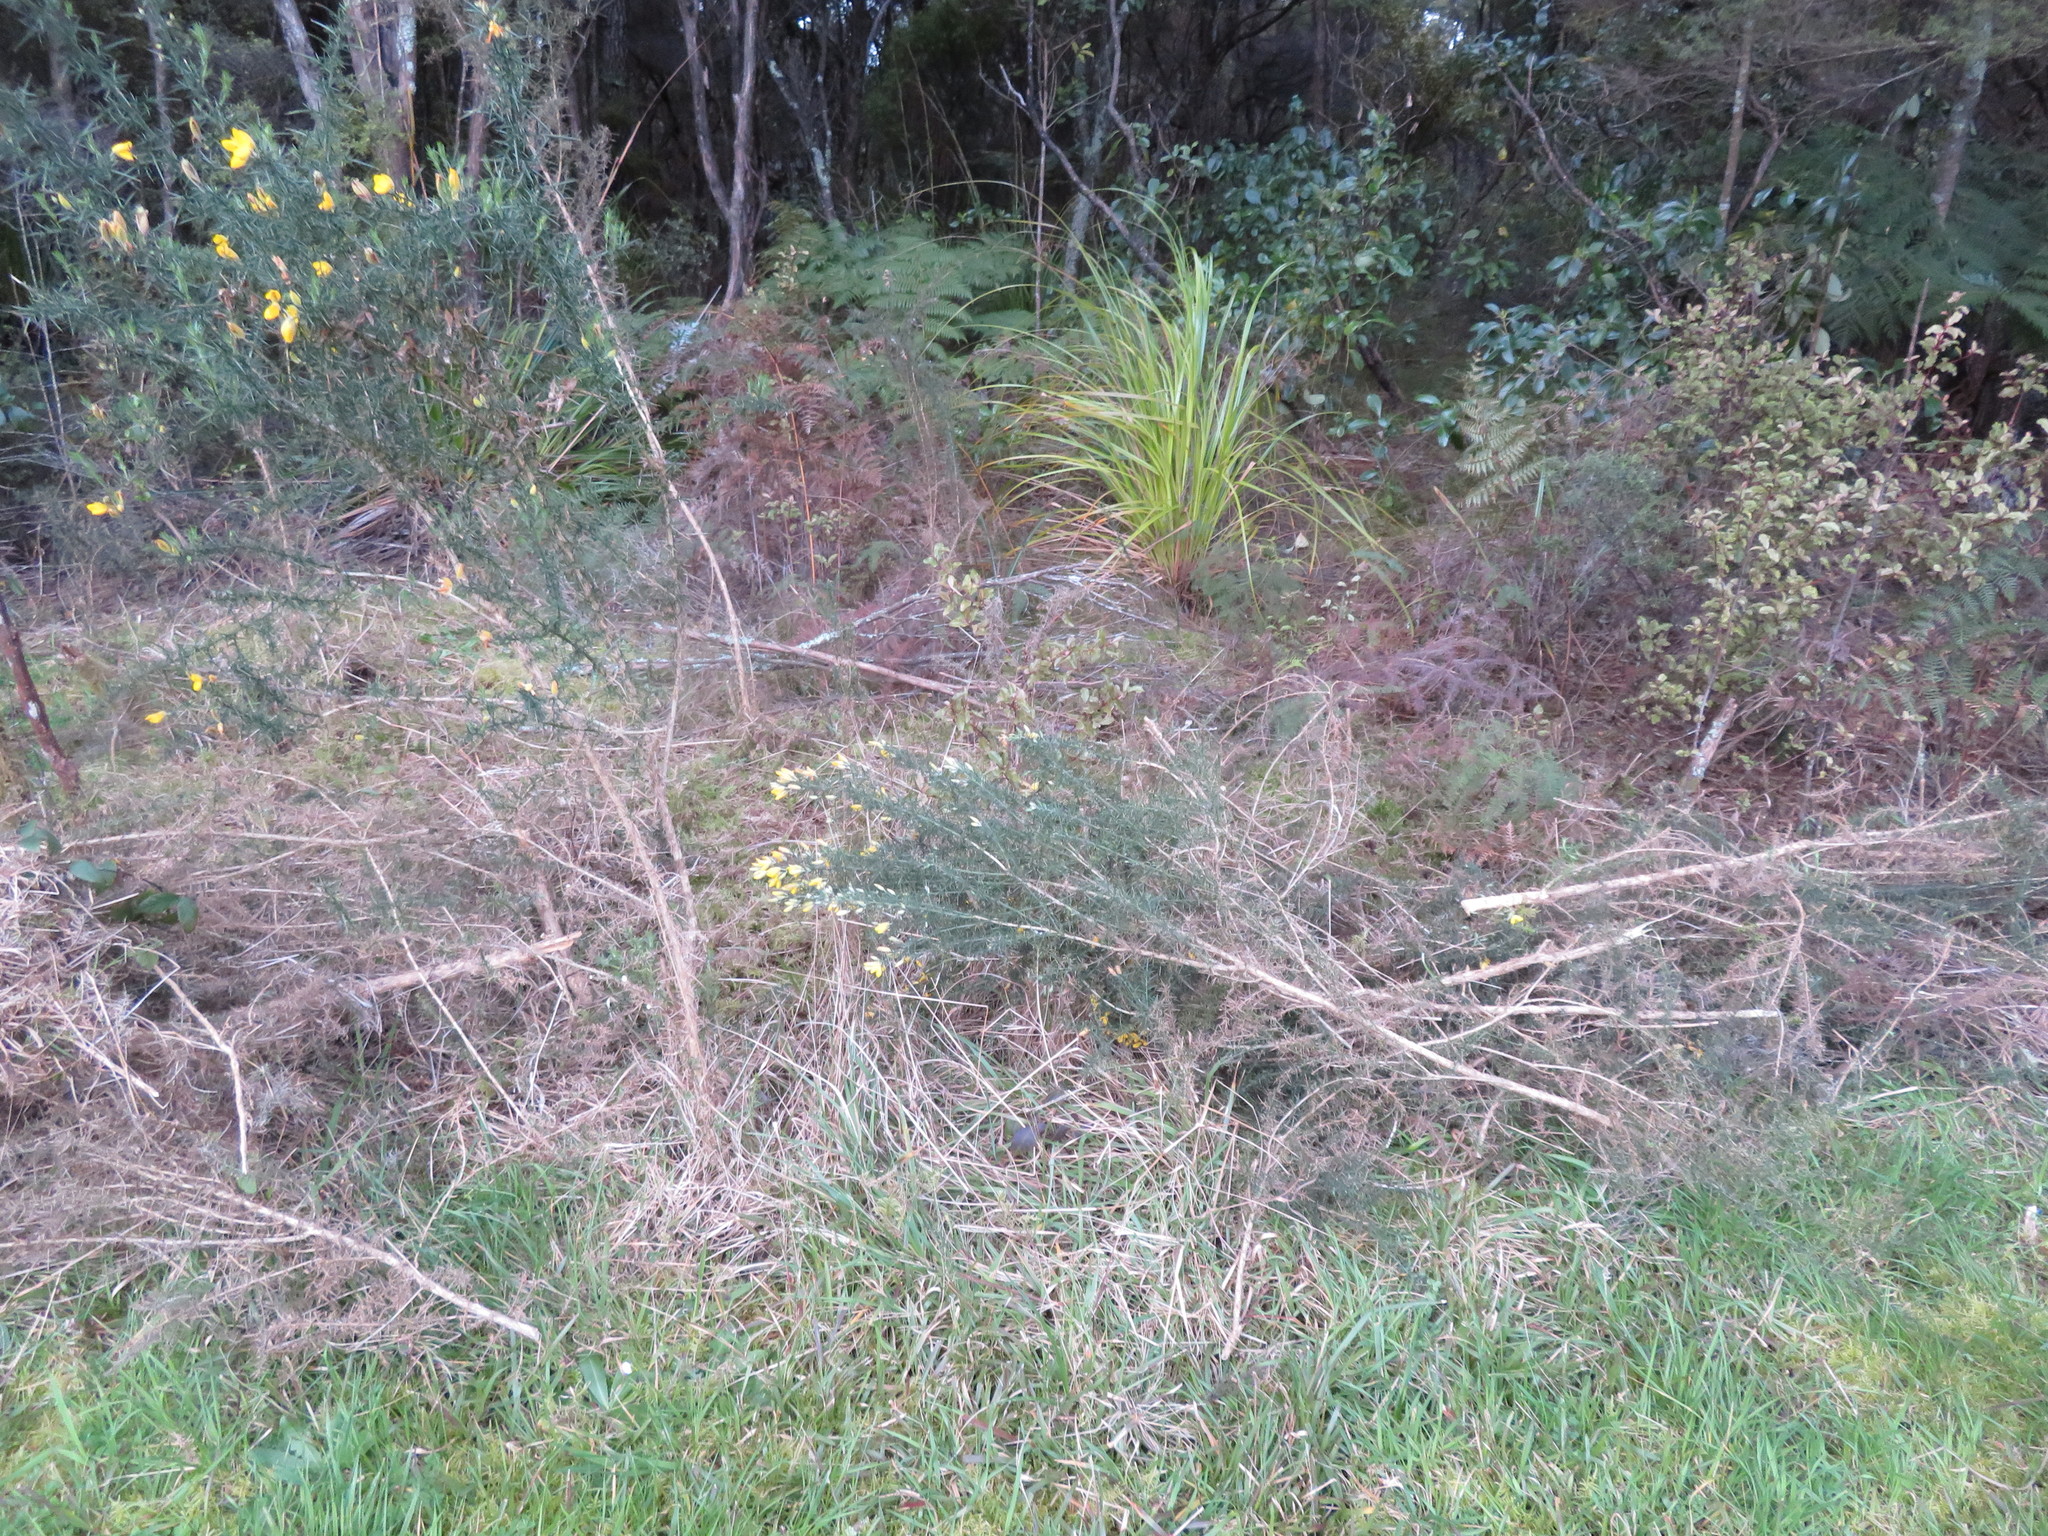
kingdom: Plantae
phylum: Tracheophyta
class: Magnoliopsida
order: Fabales
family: Fabaceae
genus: Ulex
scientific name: Ulex europaeus
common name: Common gorse
